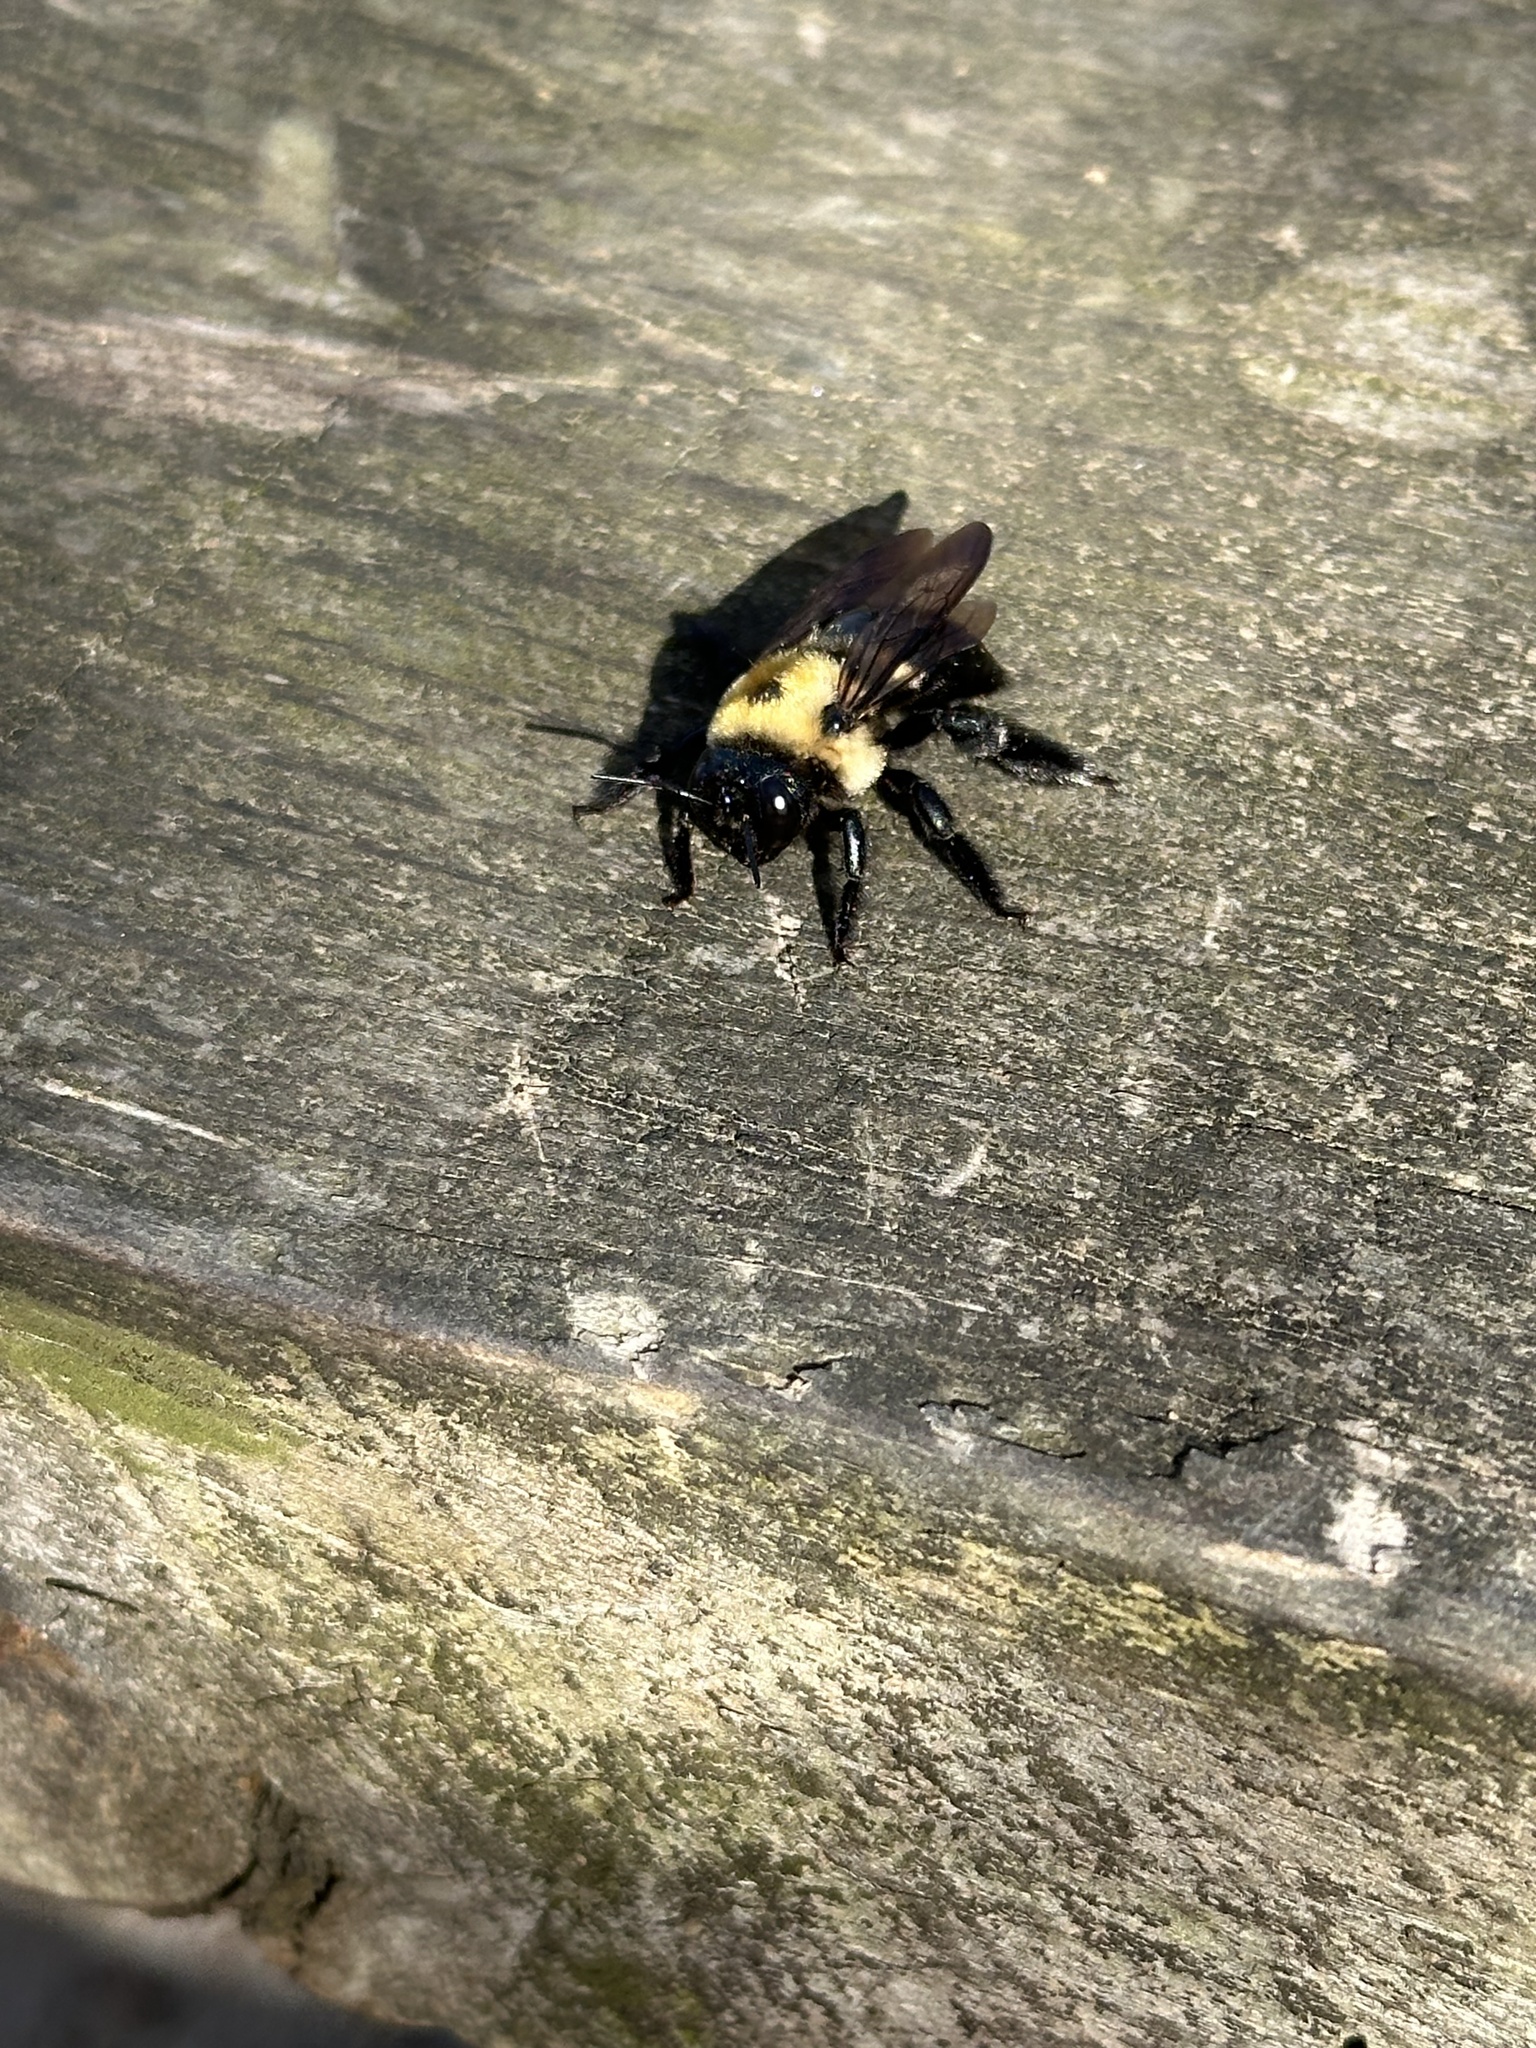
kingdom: Animalia
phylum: Arthropoda
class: Insecta
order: Hymenoptera
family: Apidae
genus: Xylocopa
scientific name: Xylocopa virginica
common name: Carpenter bee
